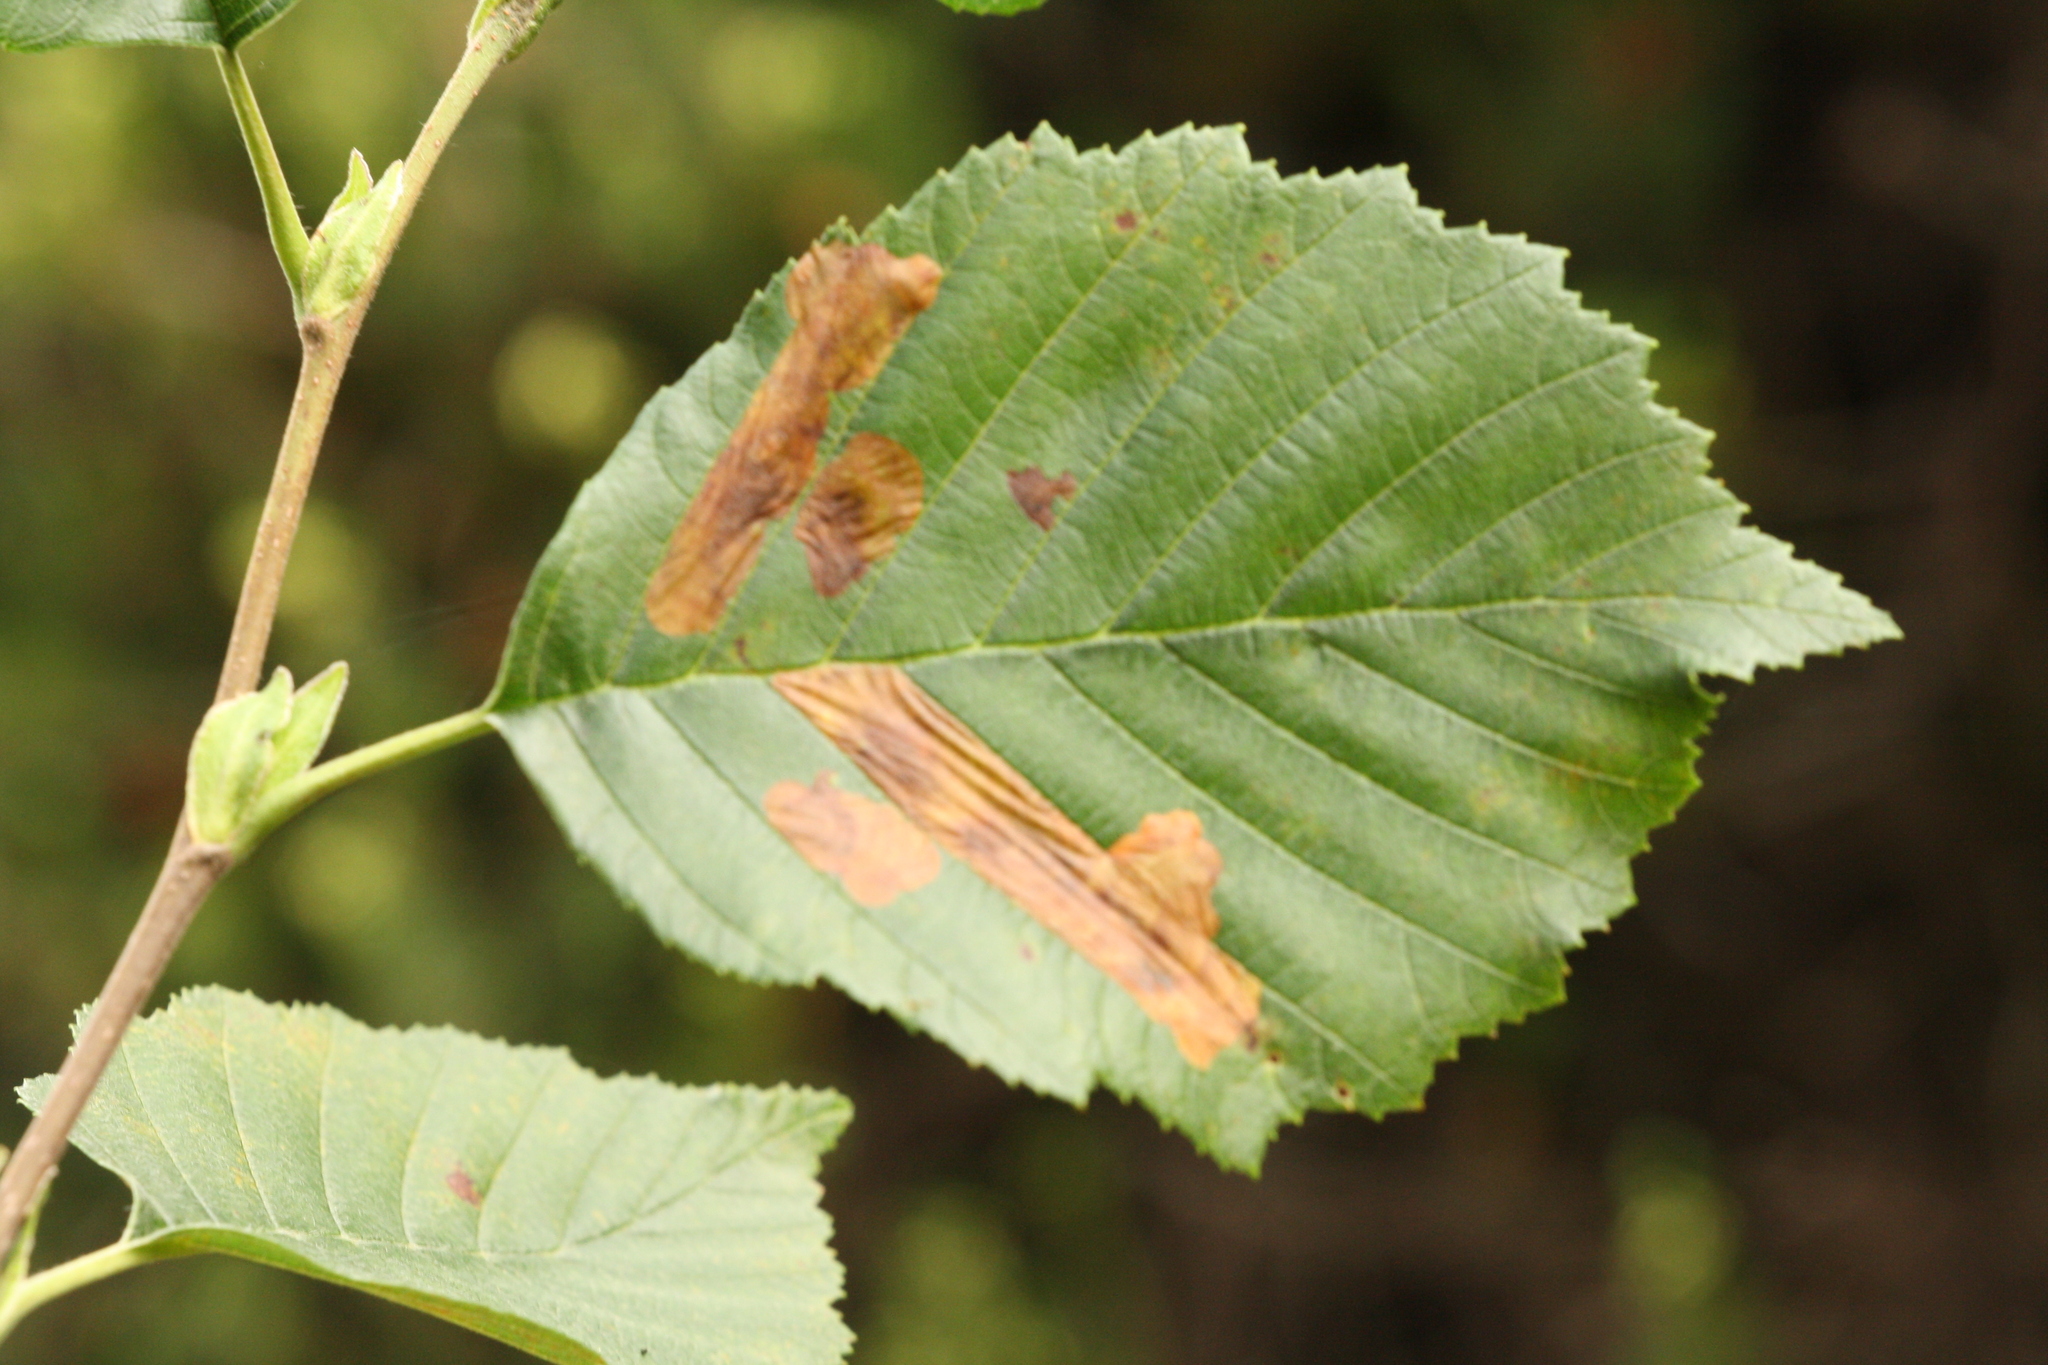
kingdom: Animalia
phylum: Arthropoda
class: Insecta
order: Hymenoptera
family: Tenthredinidae
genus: Fenusa
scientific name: Fenusa dohrnii
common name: European alder leafminer
